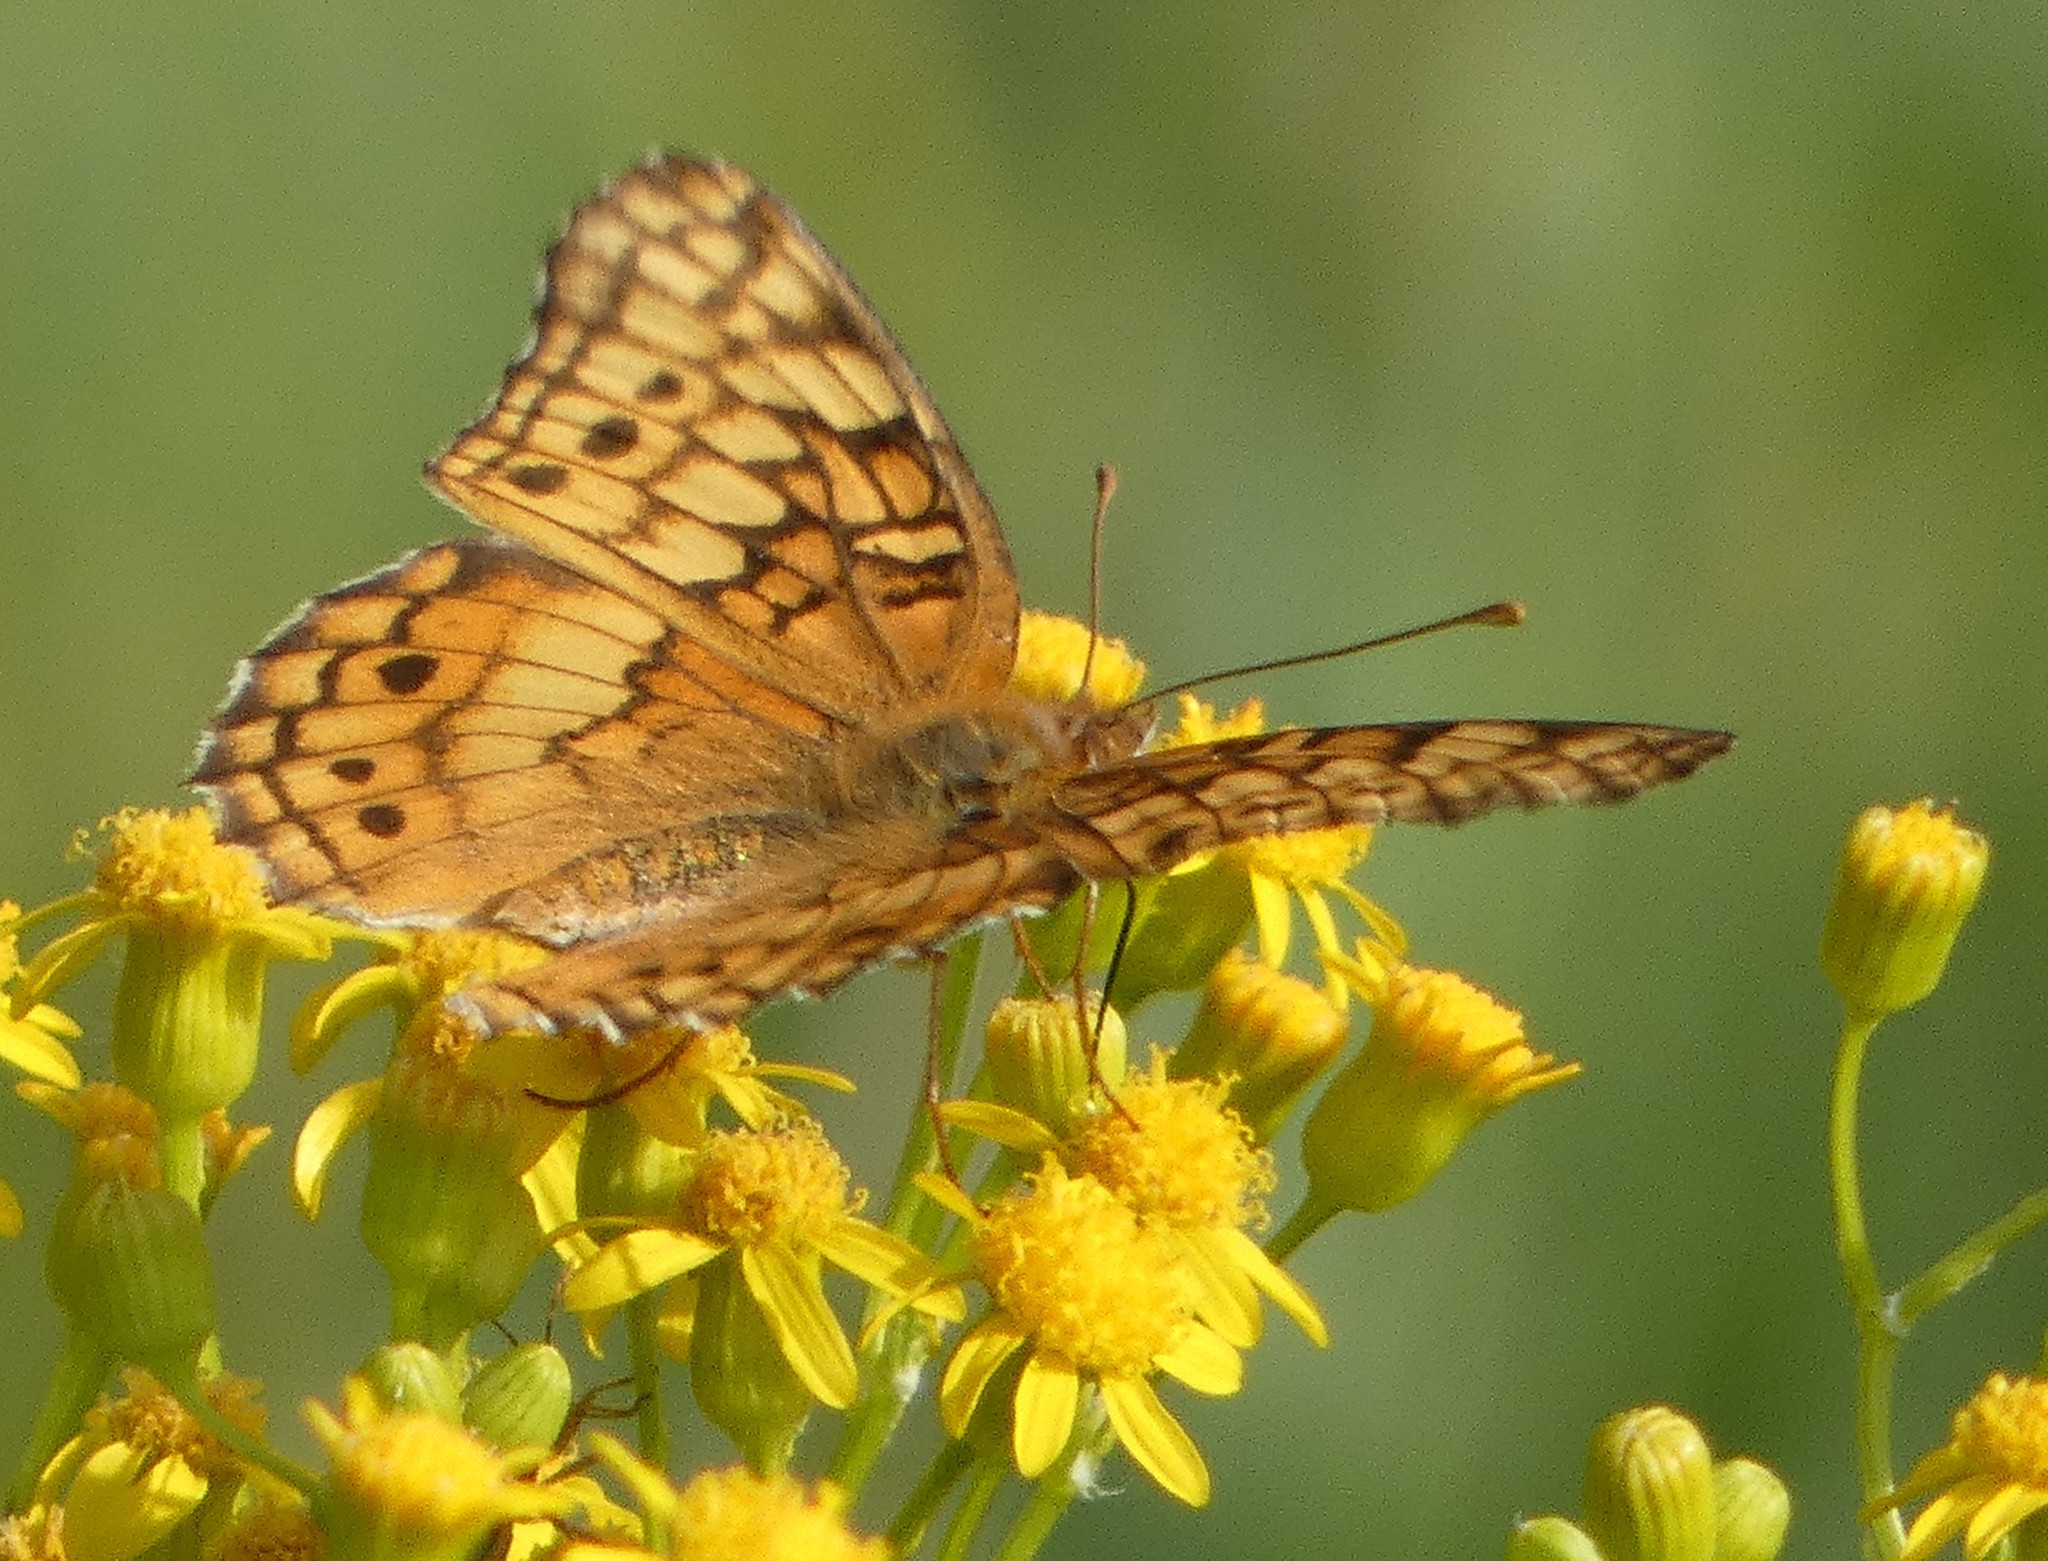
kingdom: Animalia
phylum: Arthropoda
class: Insecta
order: Lepidoptera
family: Nymphalidae
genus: Euptoieta
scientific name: Euptoieta claudia
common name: Variegated fritillary
